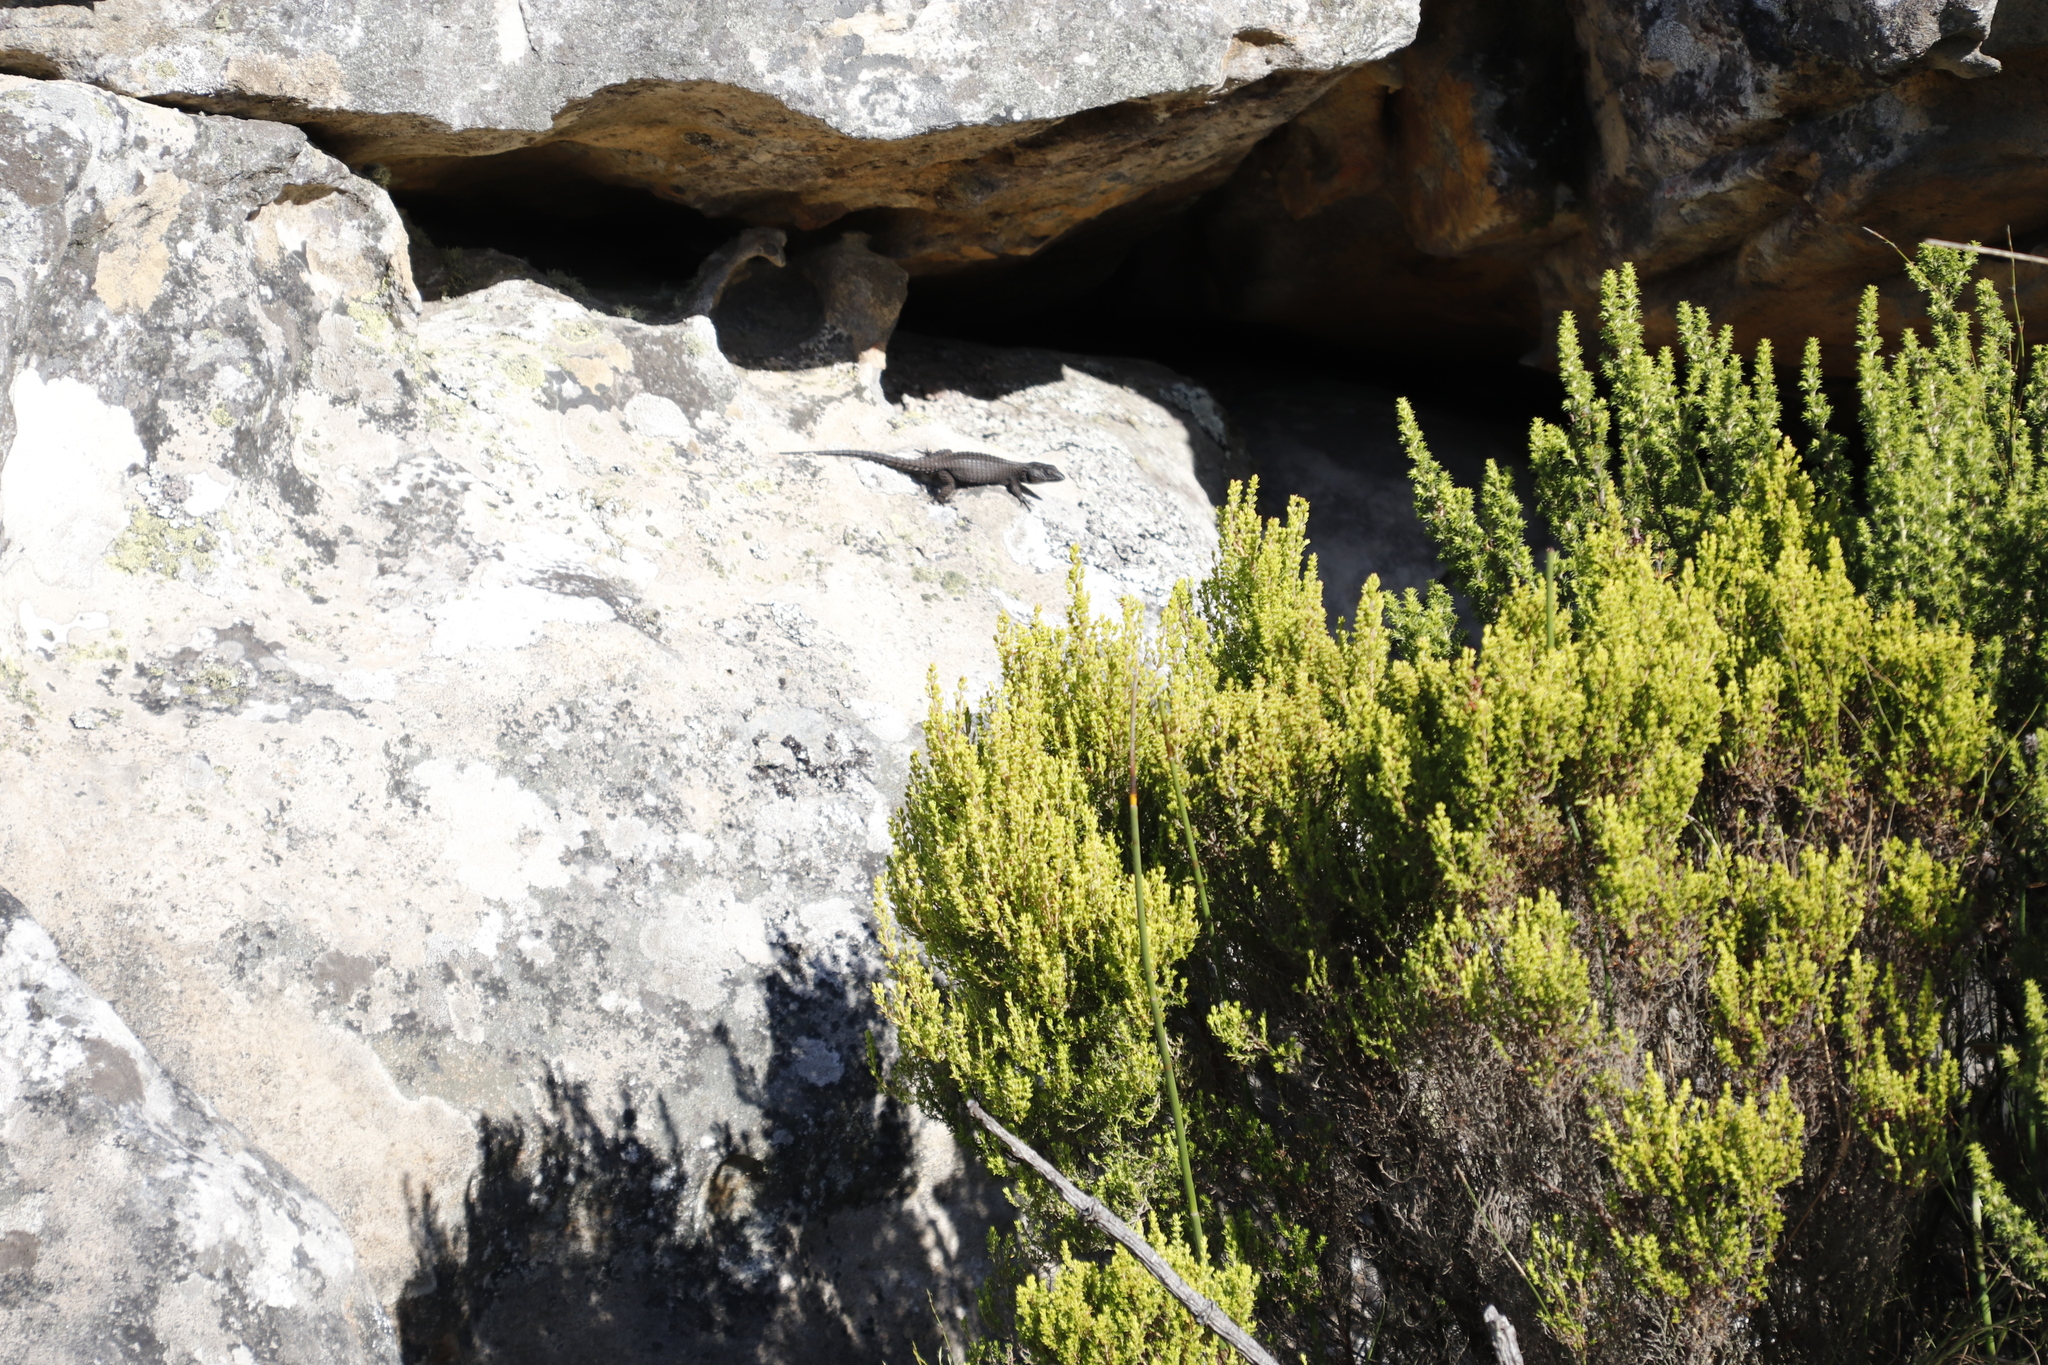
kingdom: Animalia
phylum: Chordata
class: Squamata
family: Cordylidae
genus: Cordylus
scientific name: Cordylus niger
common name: Black girdled lizard
